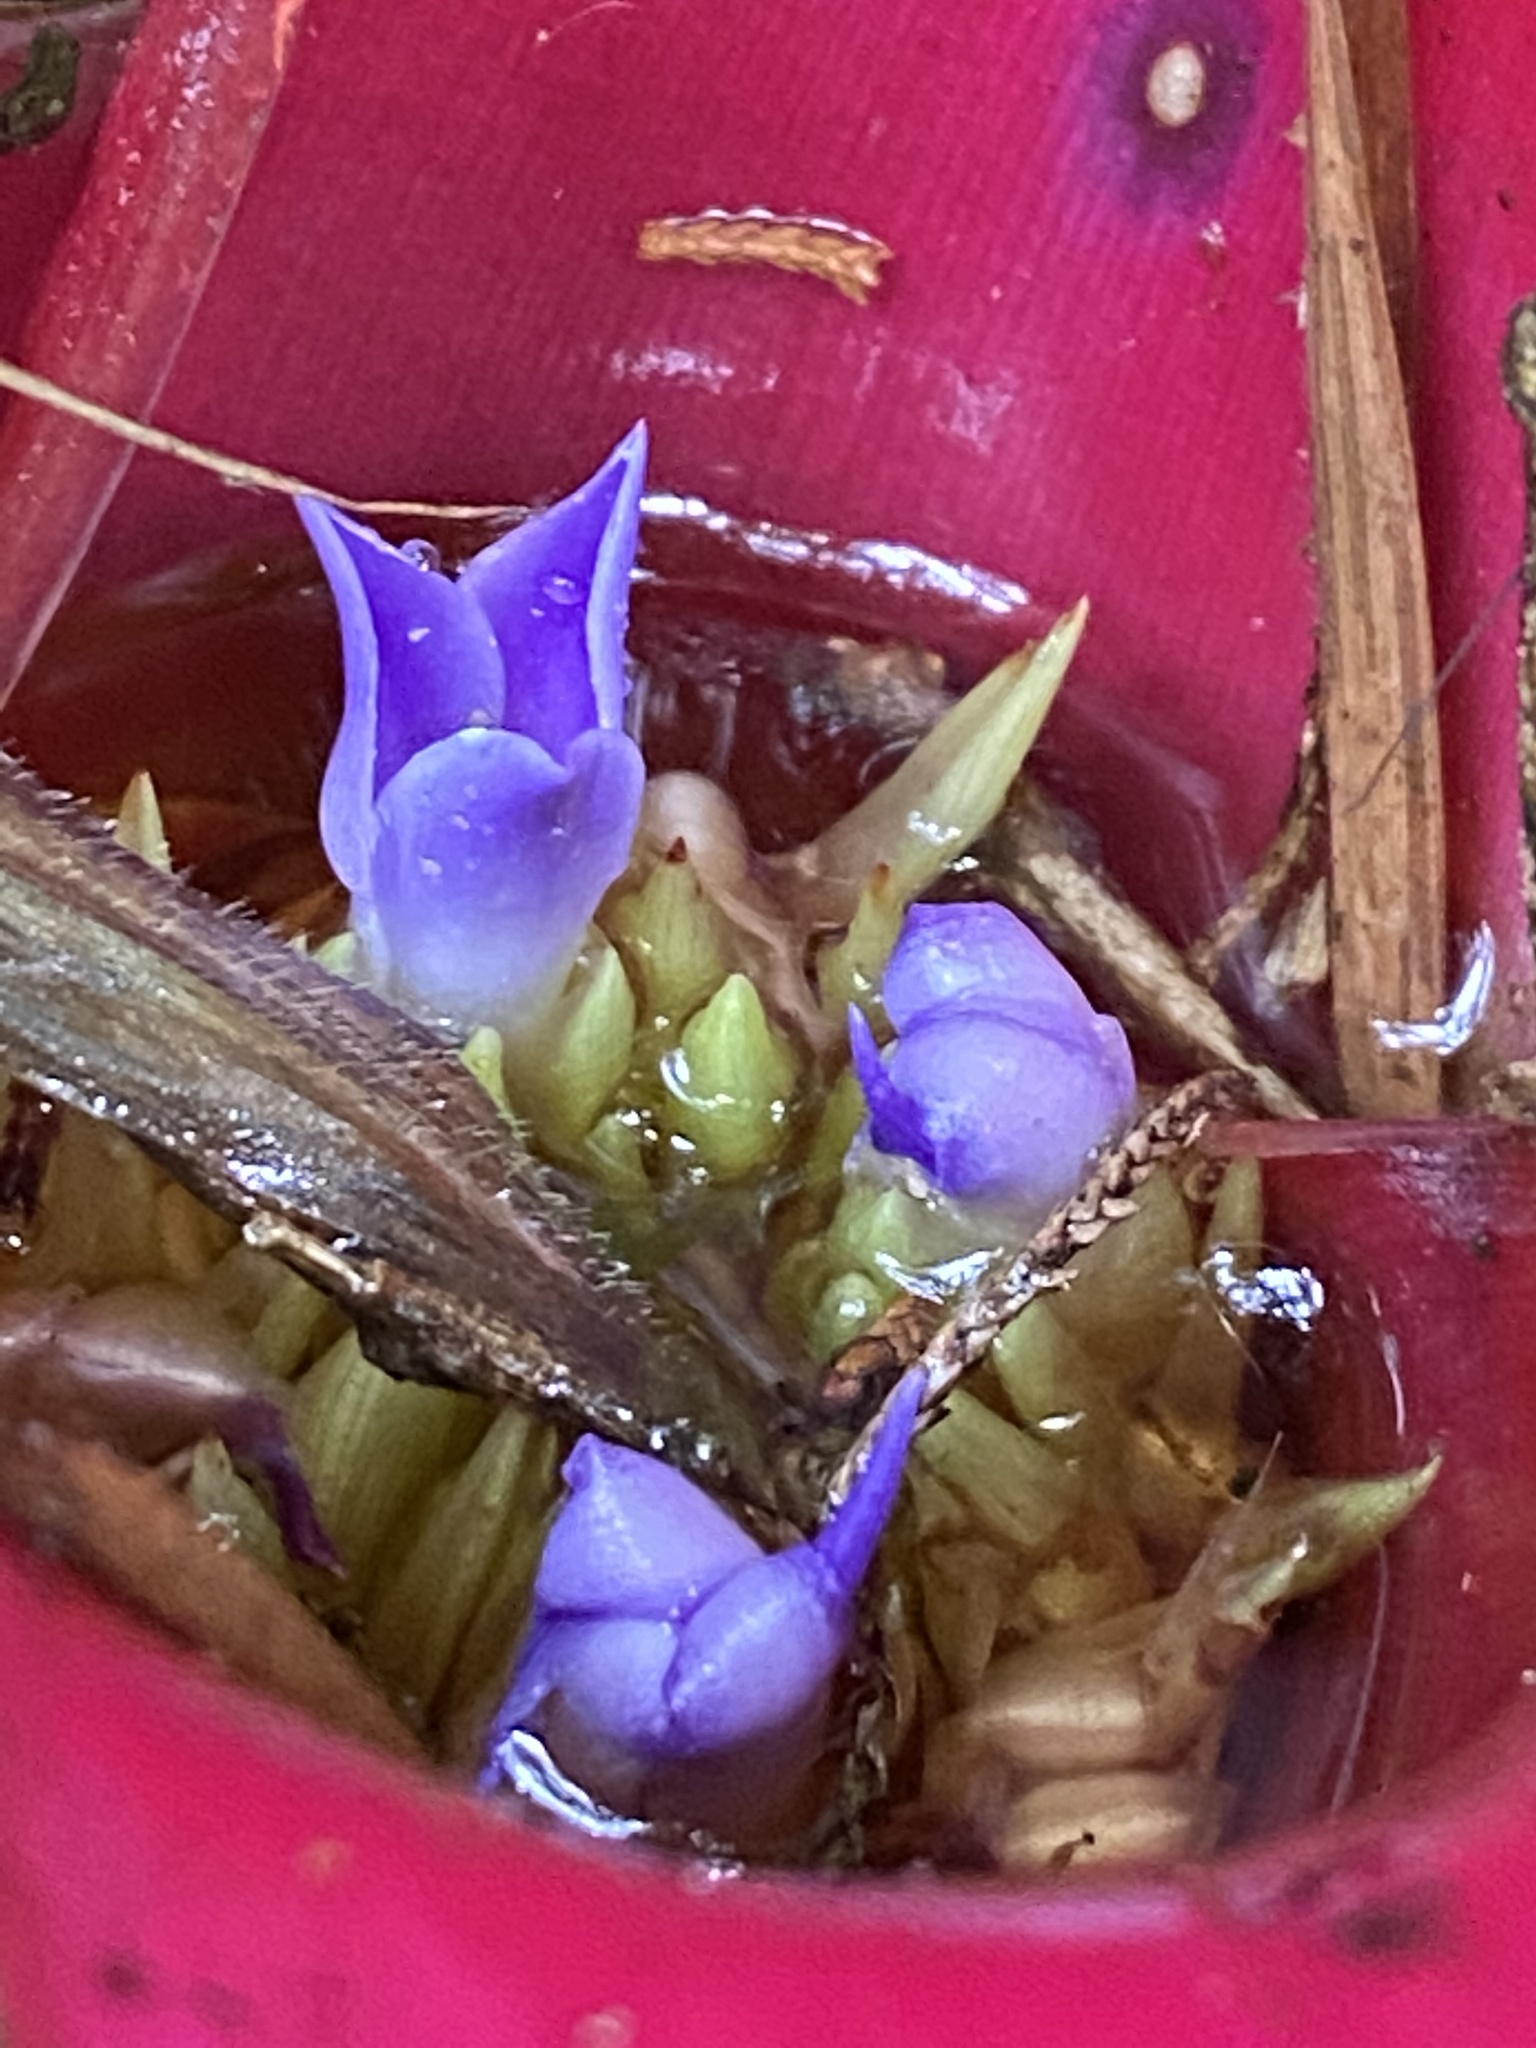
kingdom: Plantae
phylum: Tracheophyta
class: Liliopsida
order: Poales
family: Bromeliaceae
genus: Neoregelia
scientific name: Neoregelia carolinae
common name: Blushing bromeliad
